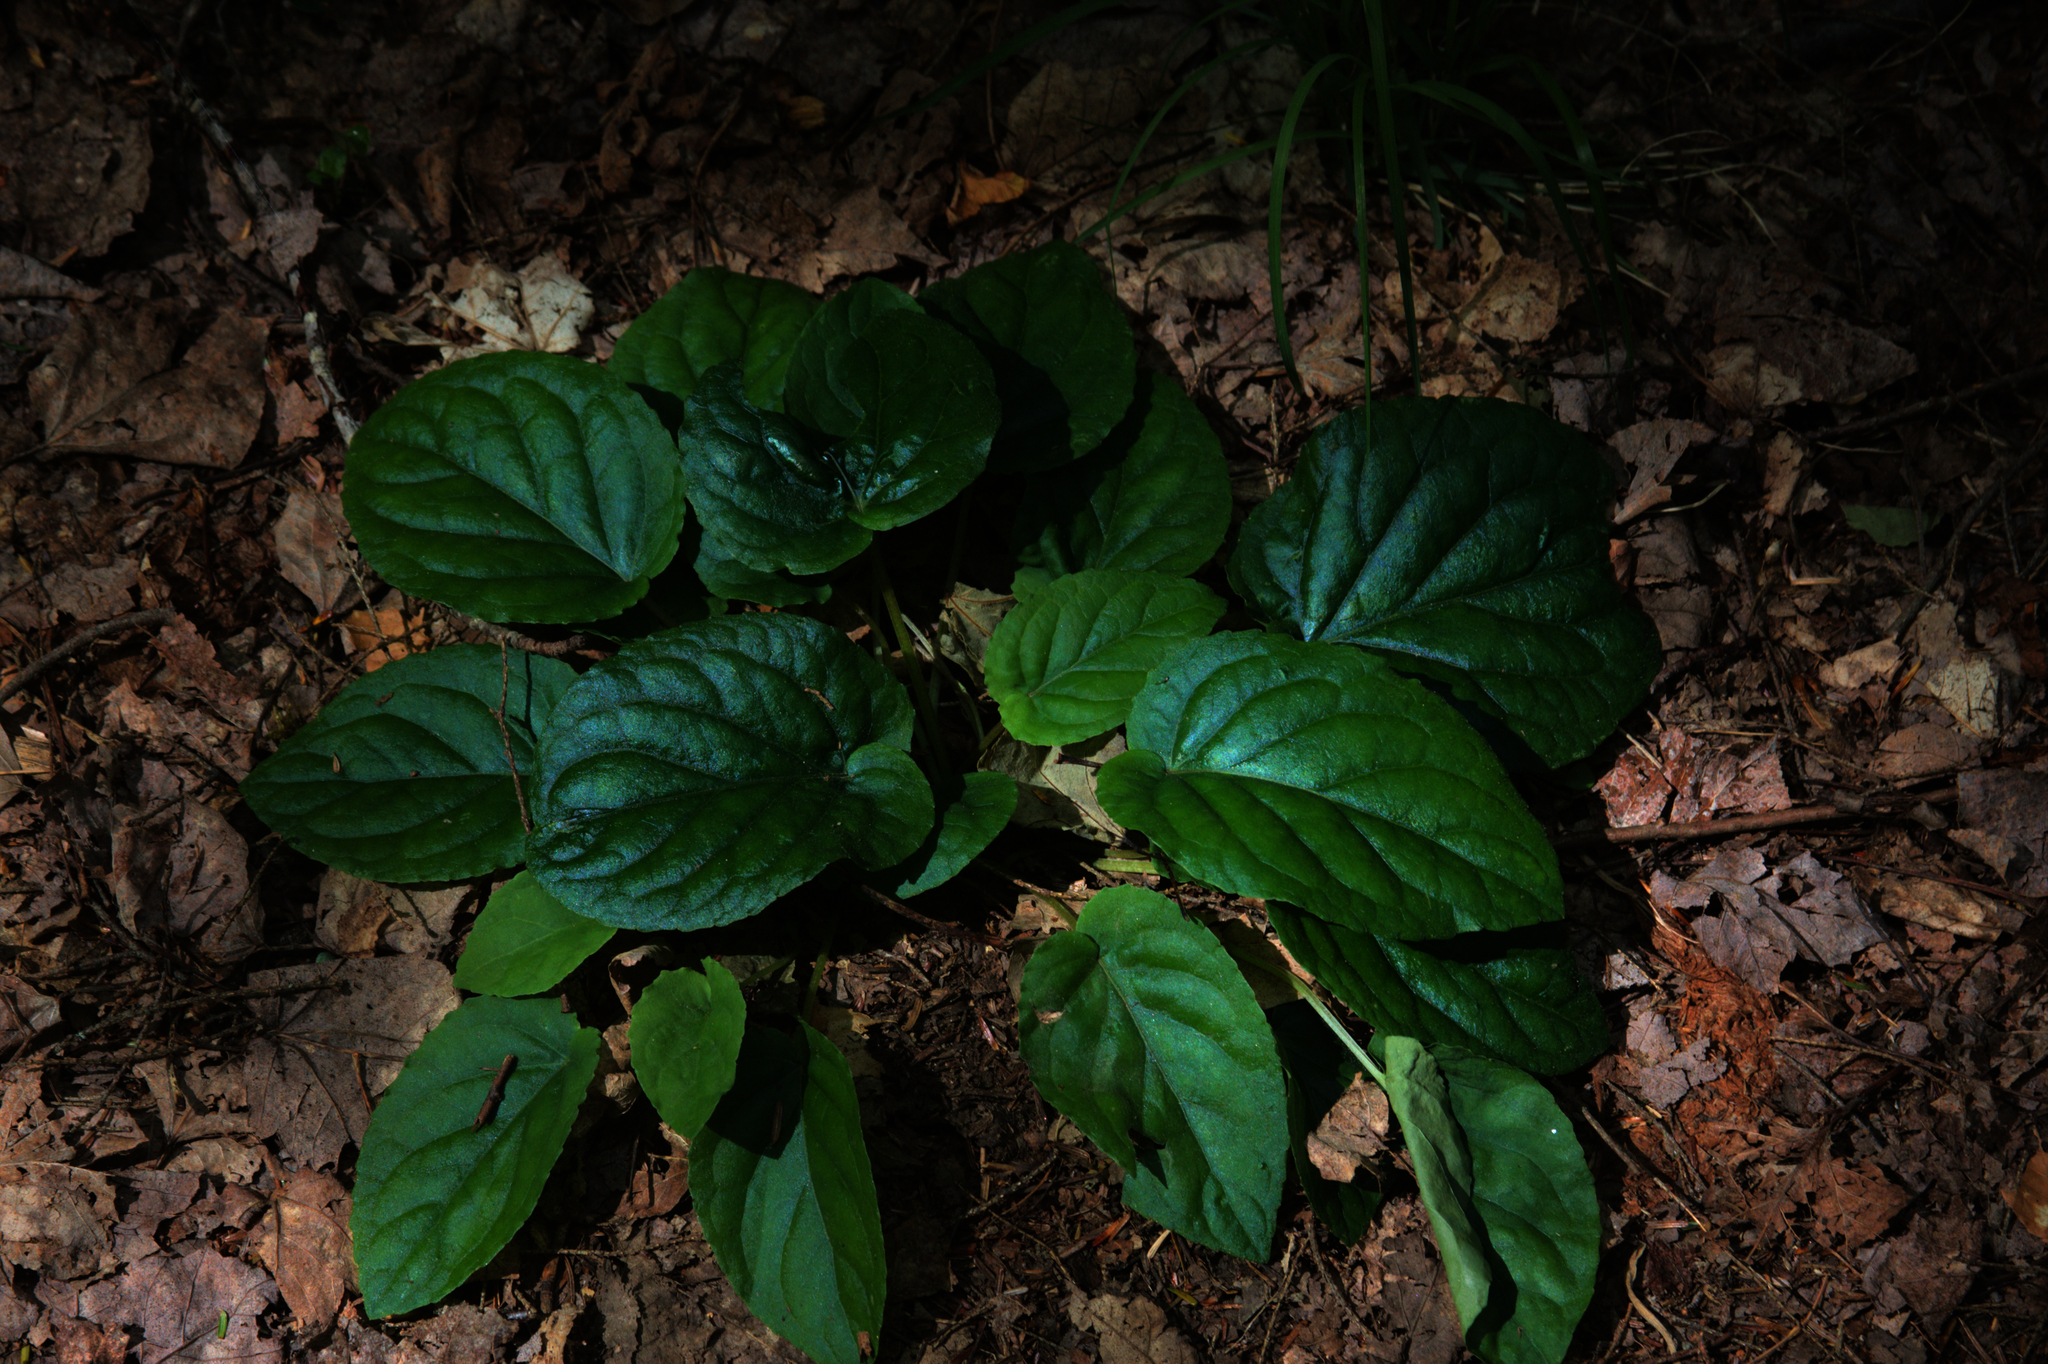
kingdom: Plantae
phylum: Tracheophyta
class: Magnoliopsida
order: Malpighiales
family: Violaceae
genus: Viola
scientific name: Viola rotundifolia
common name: Early yellow violet
